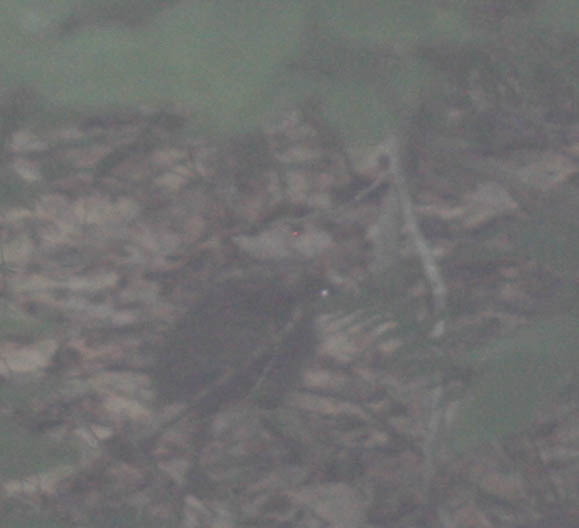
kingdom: Animalia
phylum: Chordata
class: Aves
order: Galliformes
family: Phasianidae
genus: Meleagris
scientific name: Meleagris gallopavo
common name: Wild turkey
